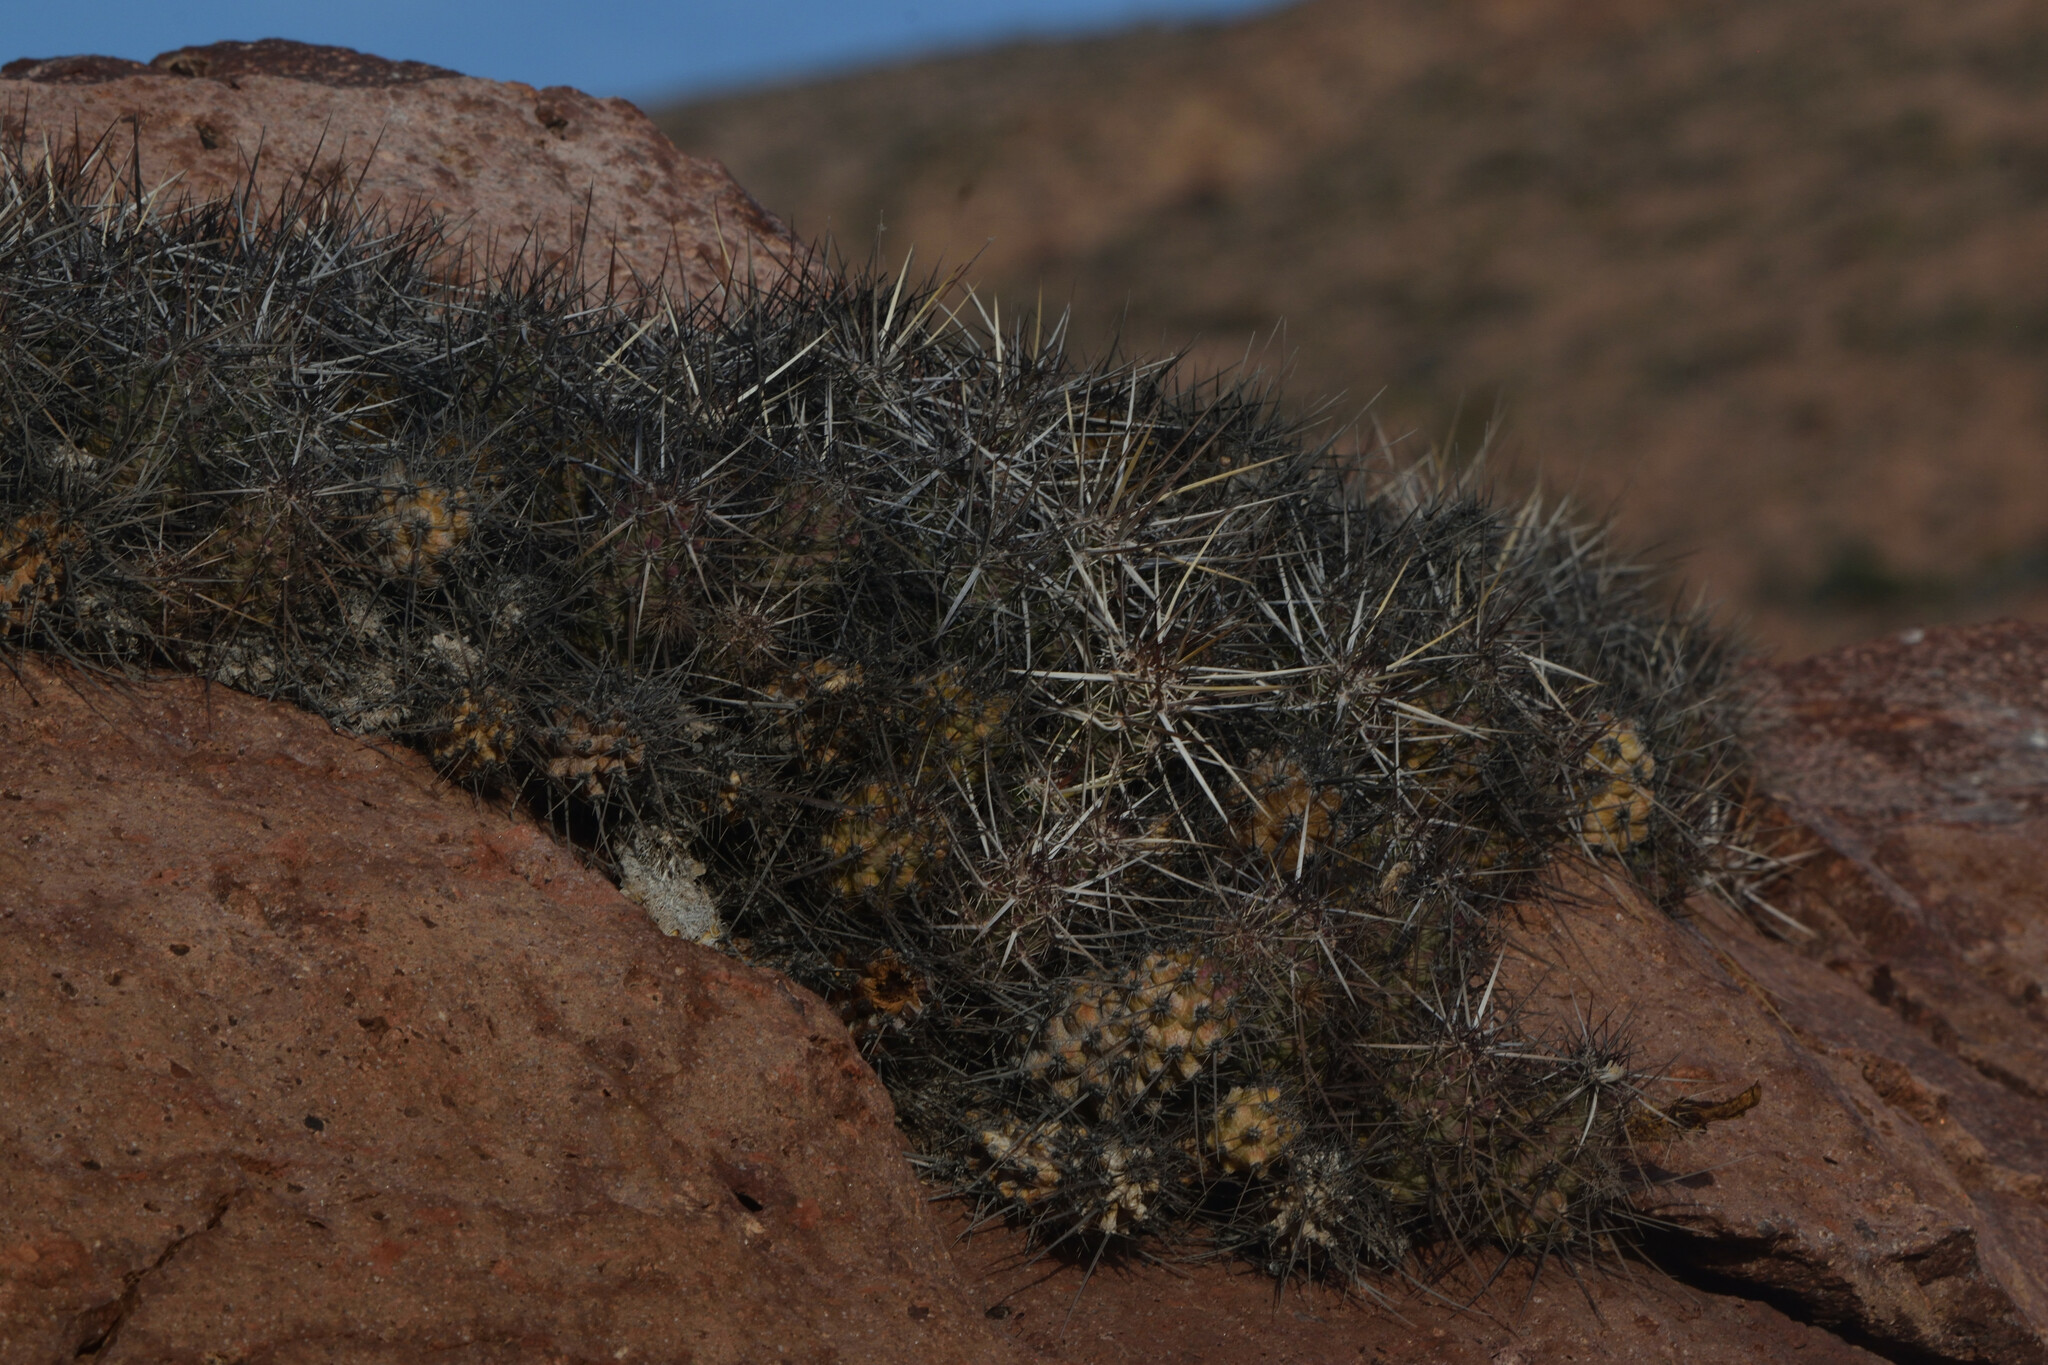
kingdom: Plantae
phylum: Tracheophyta
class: Magnoliopsida
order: Caryophyllales
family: Cactaceae
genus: Echinocereus
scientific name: Echinocereus brandegeei
